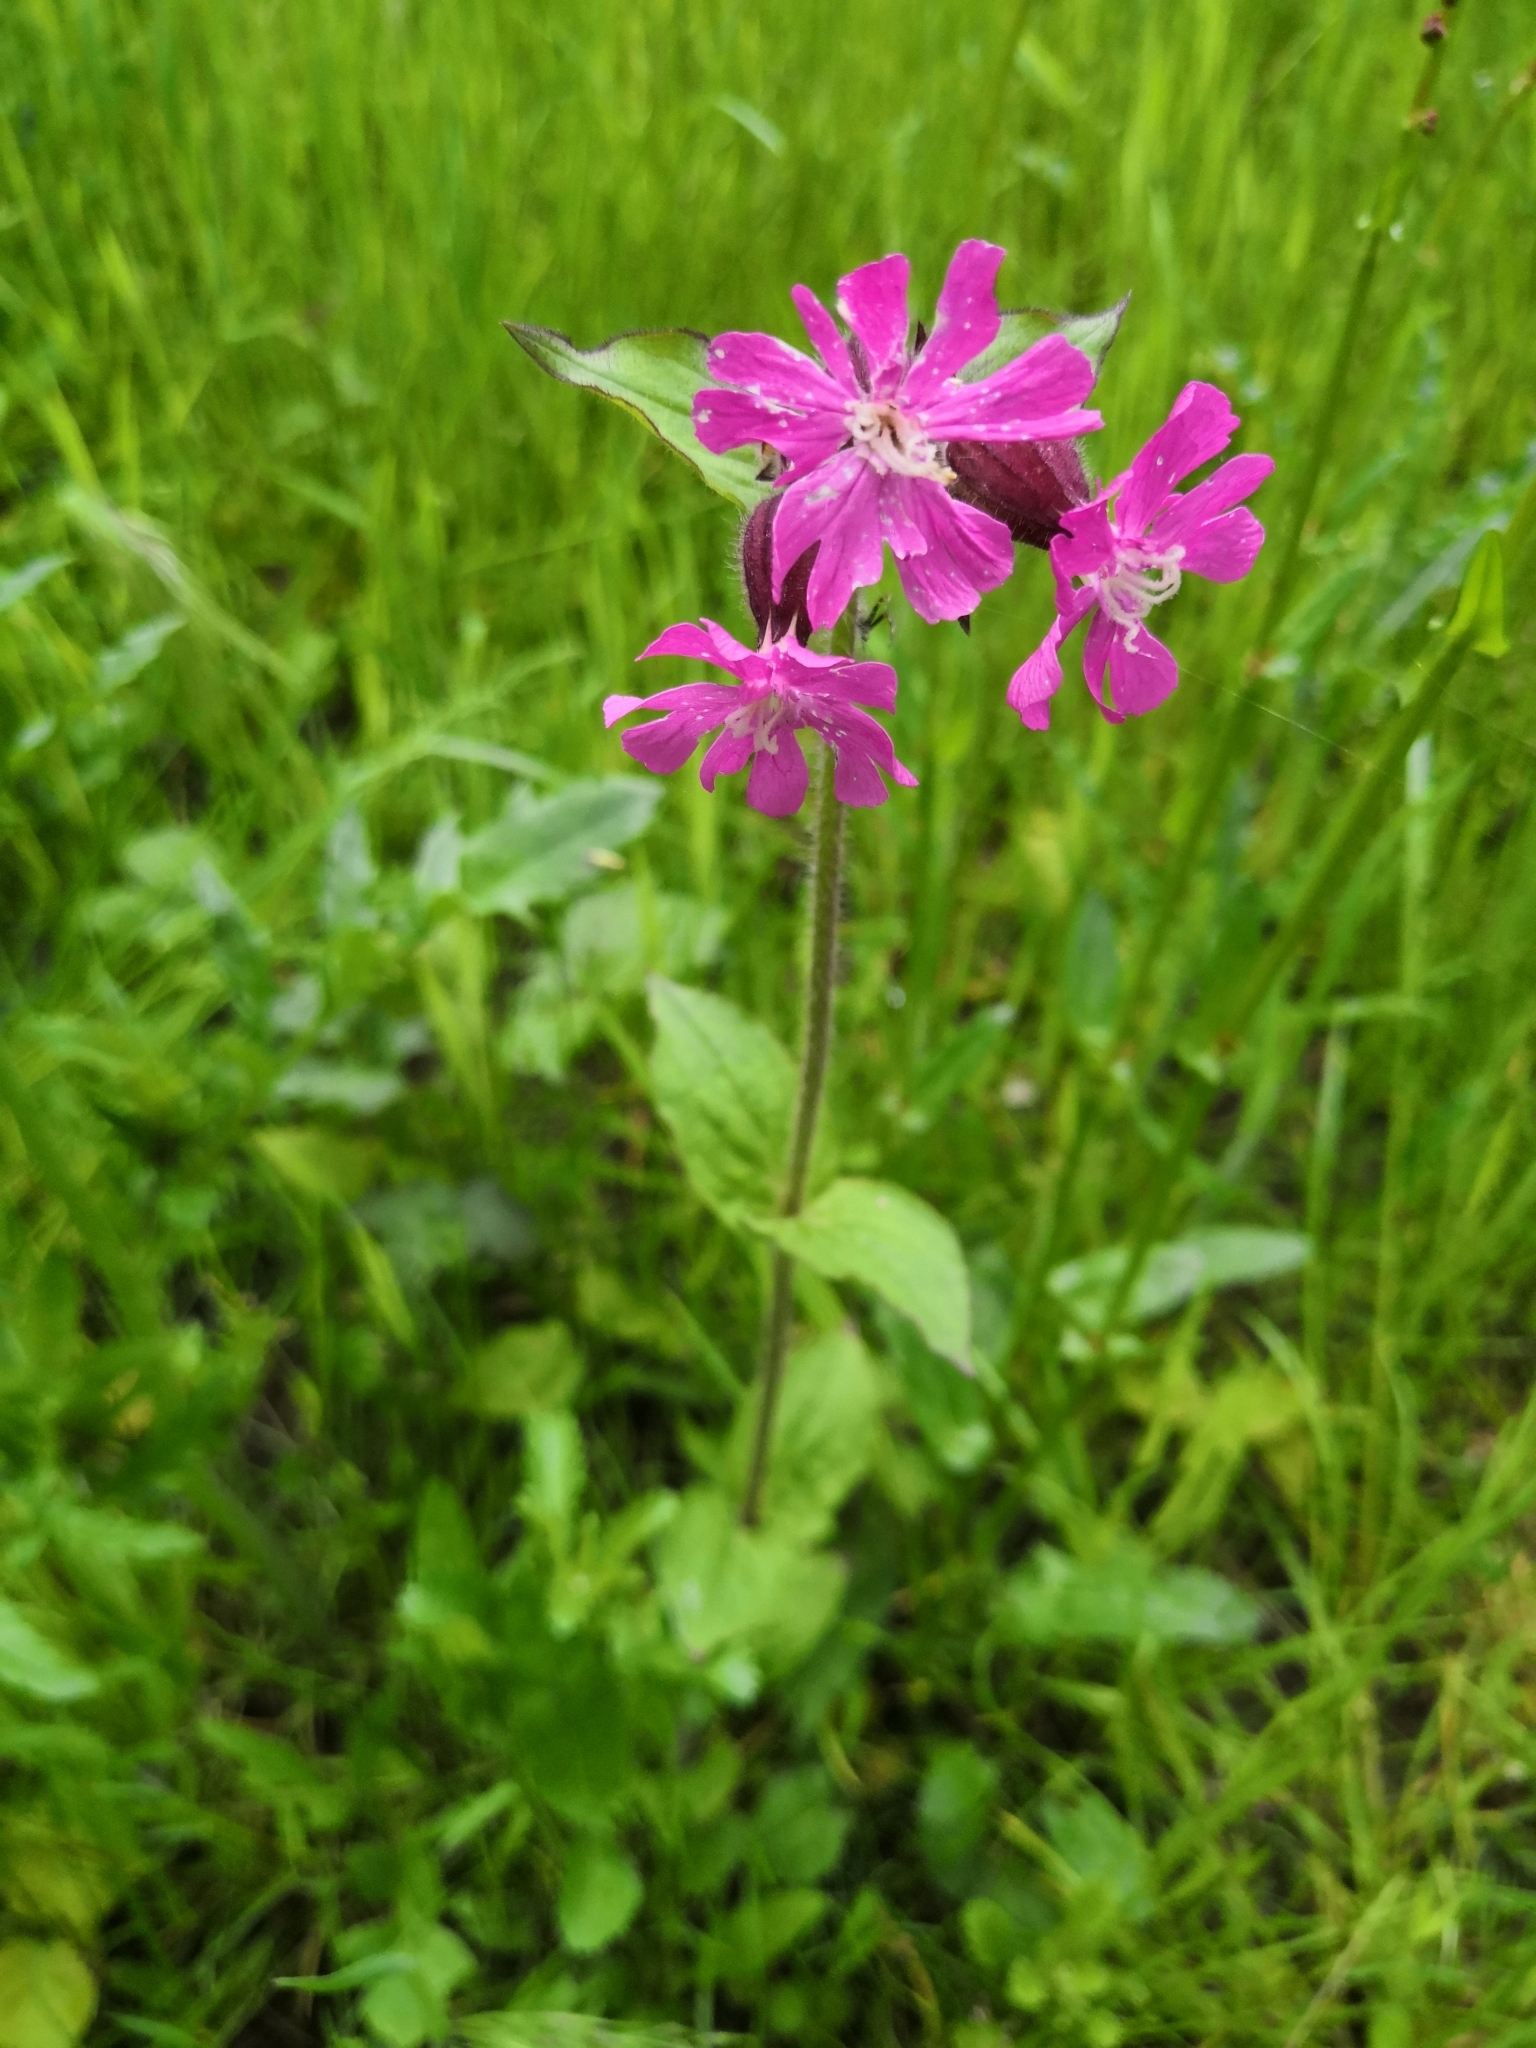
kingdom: Plantae
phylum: Tracheophyta
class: Magnoliopsida
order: Caryophyllales
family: Caryophyllaceae
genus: Silene
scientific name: Silene dioica
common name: Red campion
